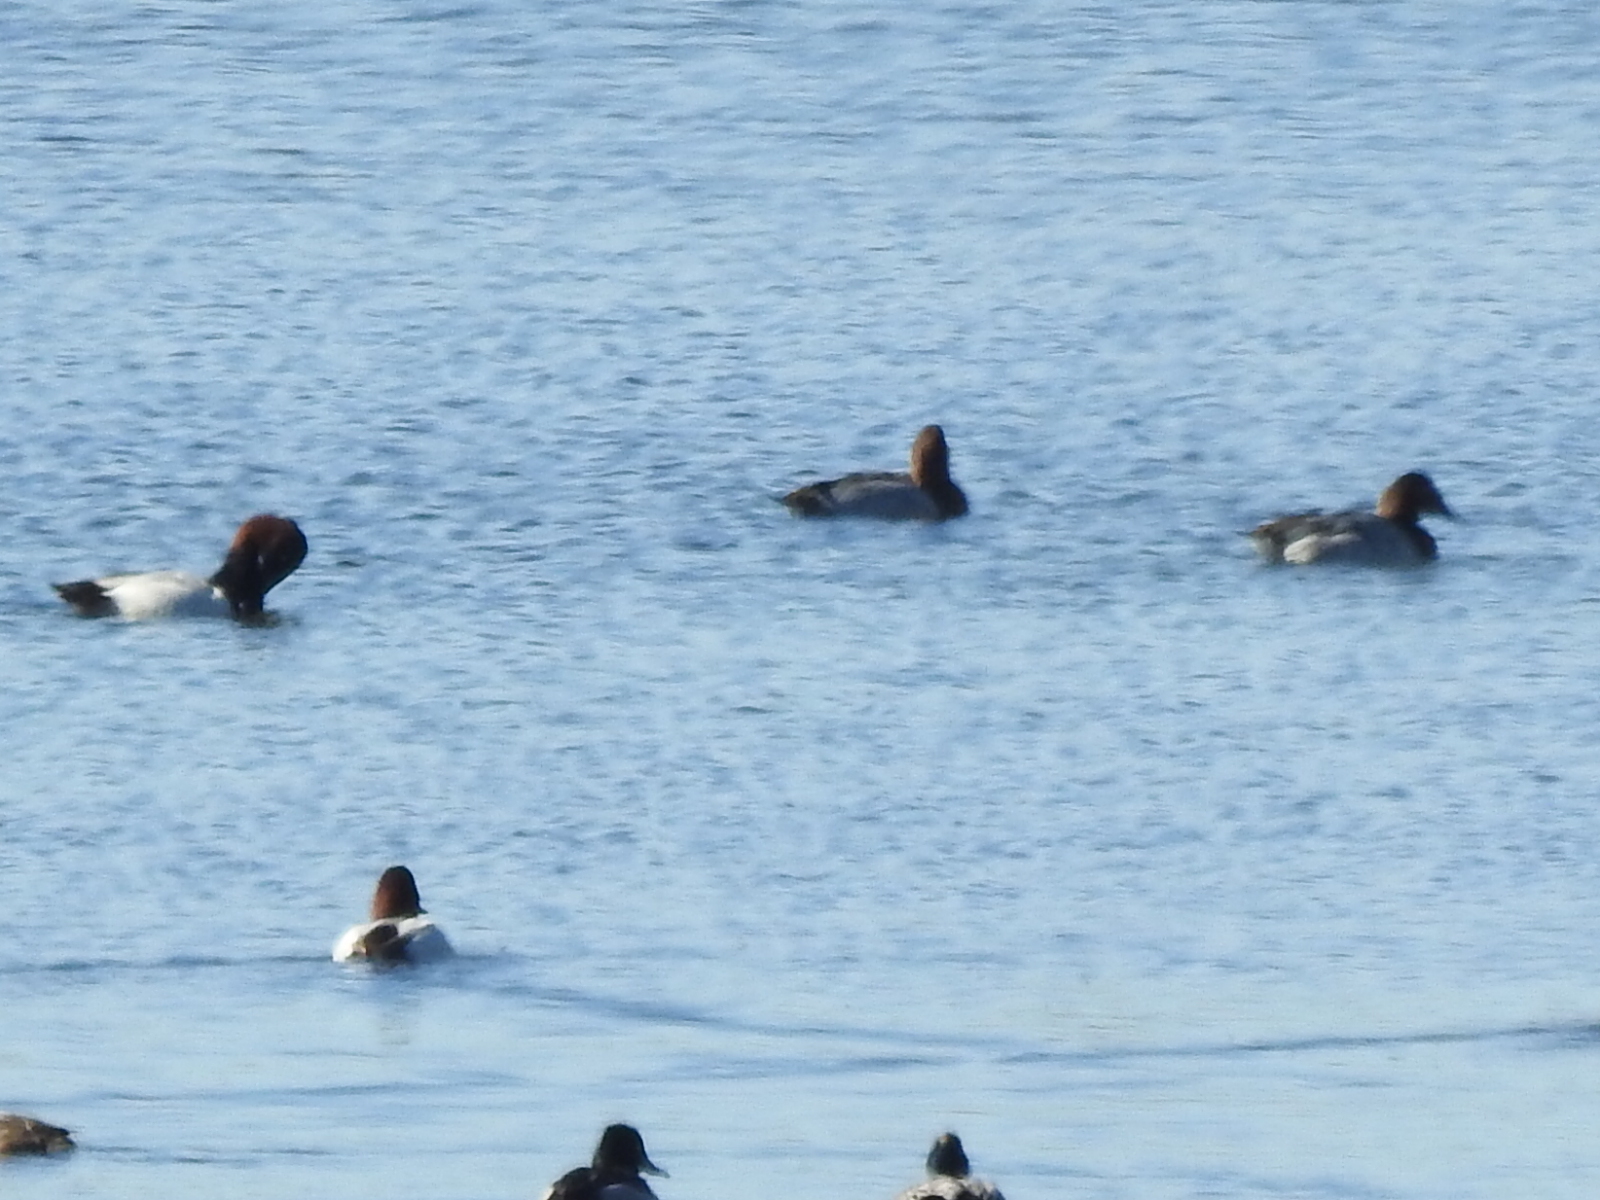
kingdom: Animalia
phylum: Chordata
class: Aves
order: Anseriformes
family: Anatidae
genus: Aythya
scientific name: Aythya valisineria
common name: Canvasback
